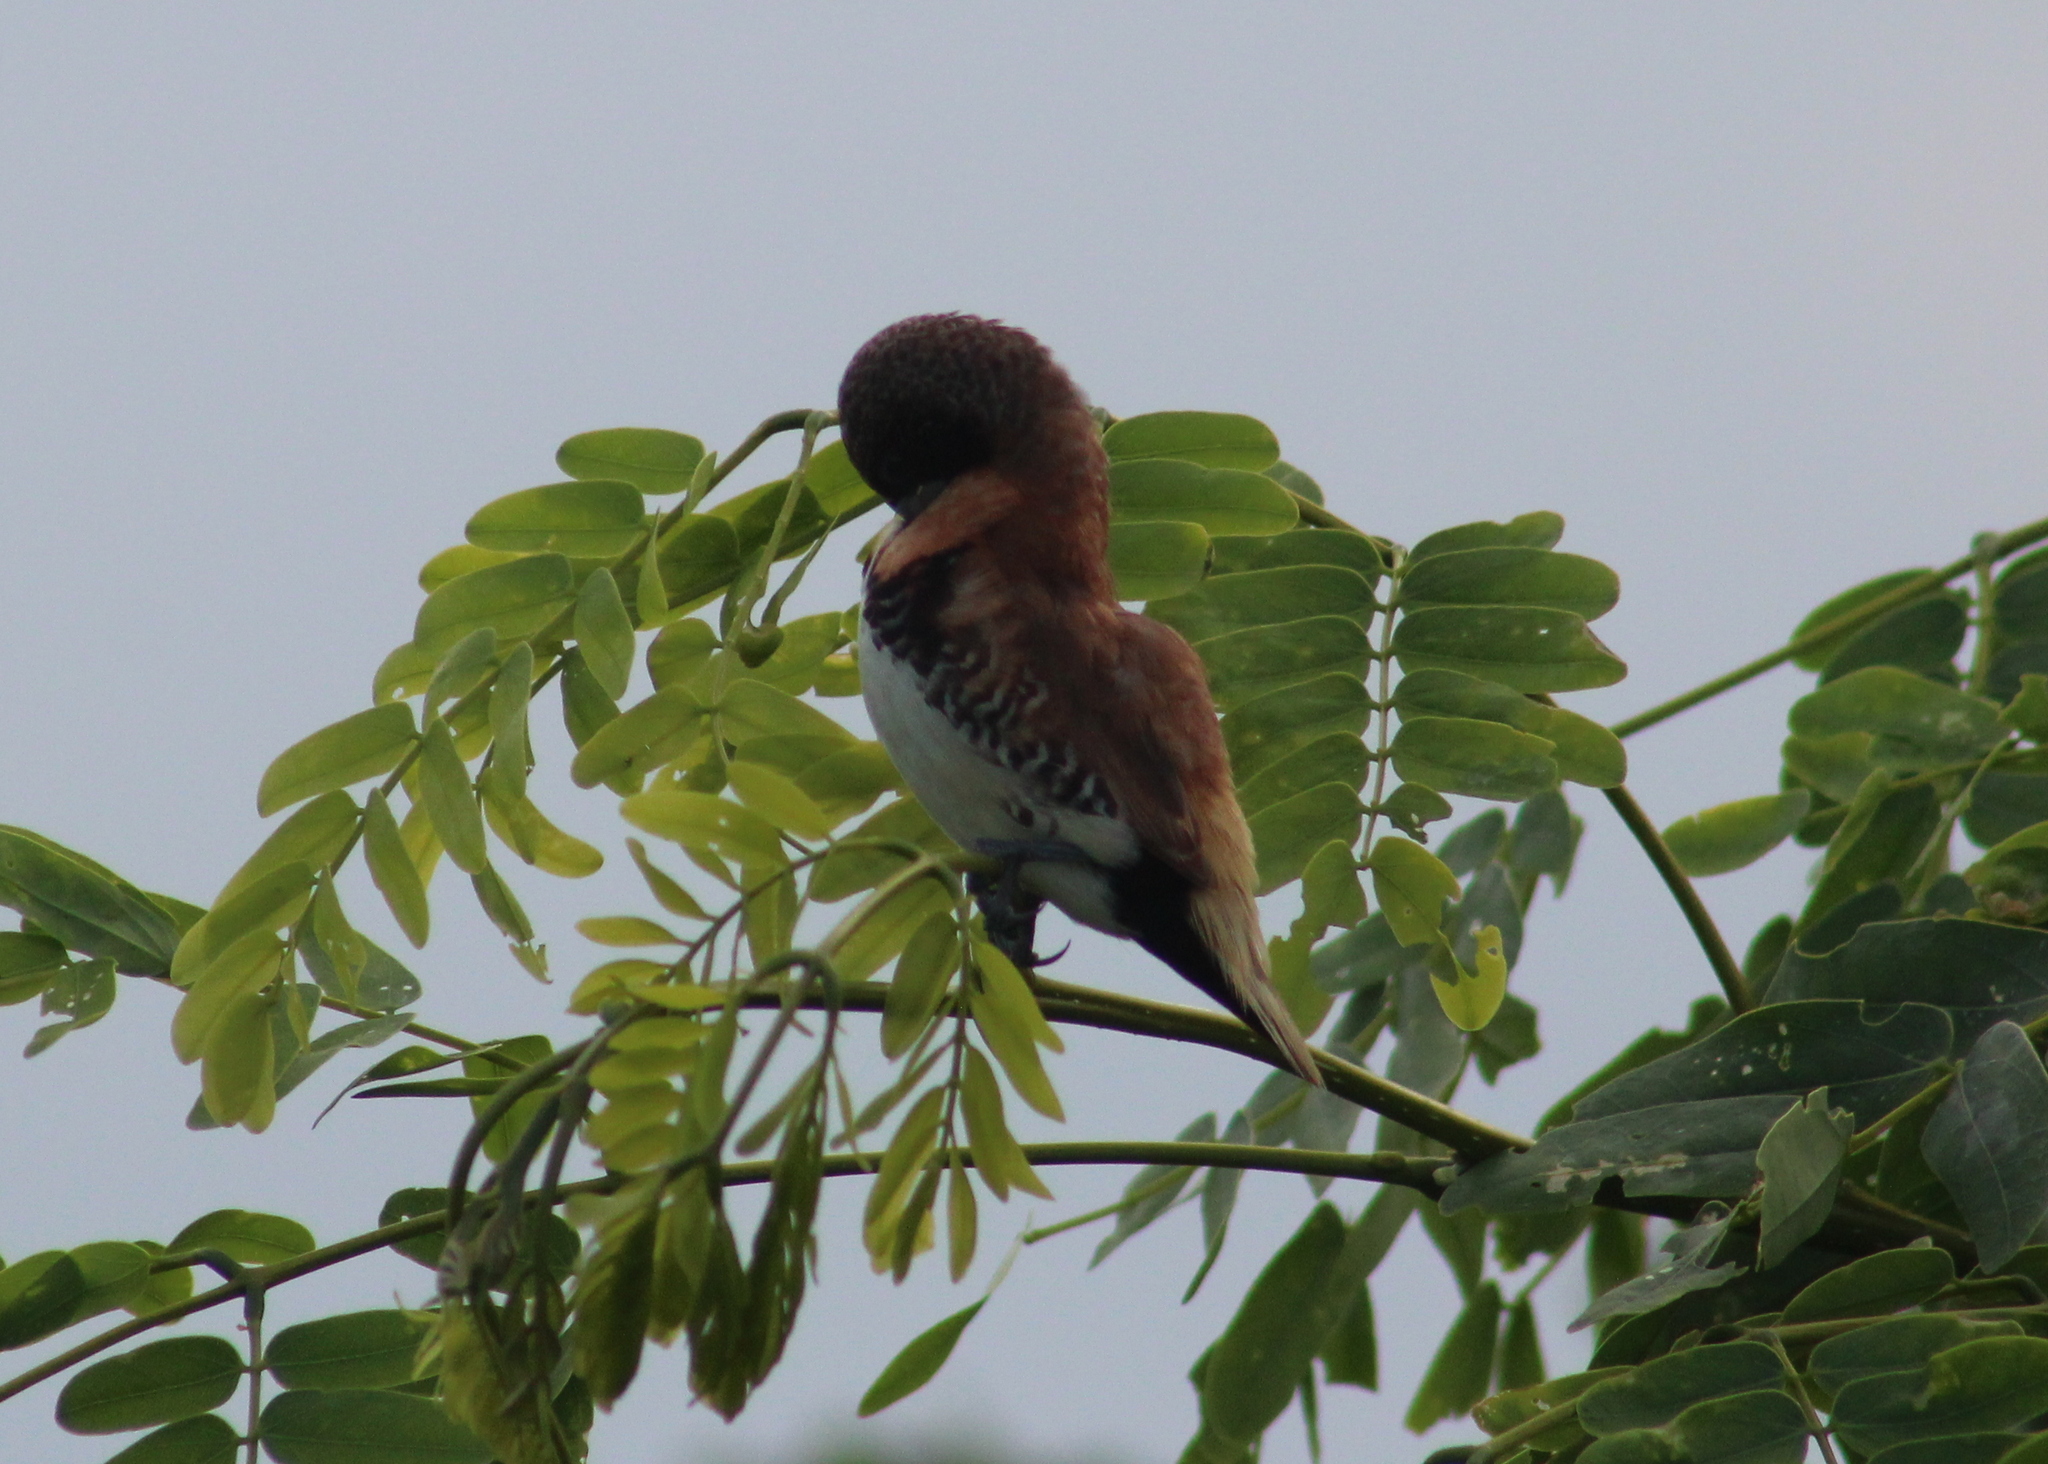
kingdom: Animalia
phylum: Chordata
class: Aves
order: Passeriformes
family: Estrildidae
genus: Lonchura
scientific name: Lonchura castaneothorax
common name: Chestnut-breasted mannikin
